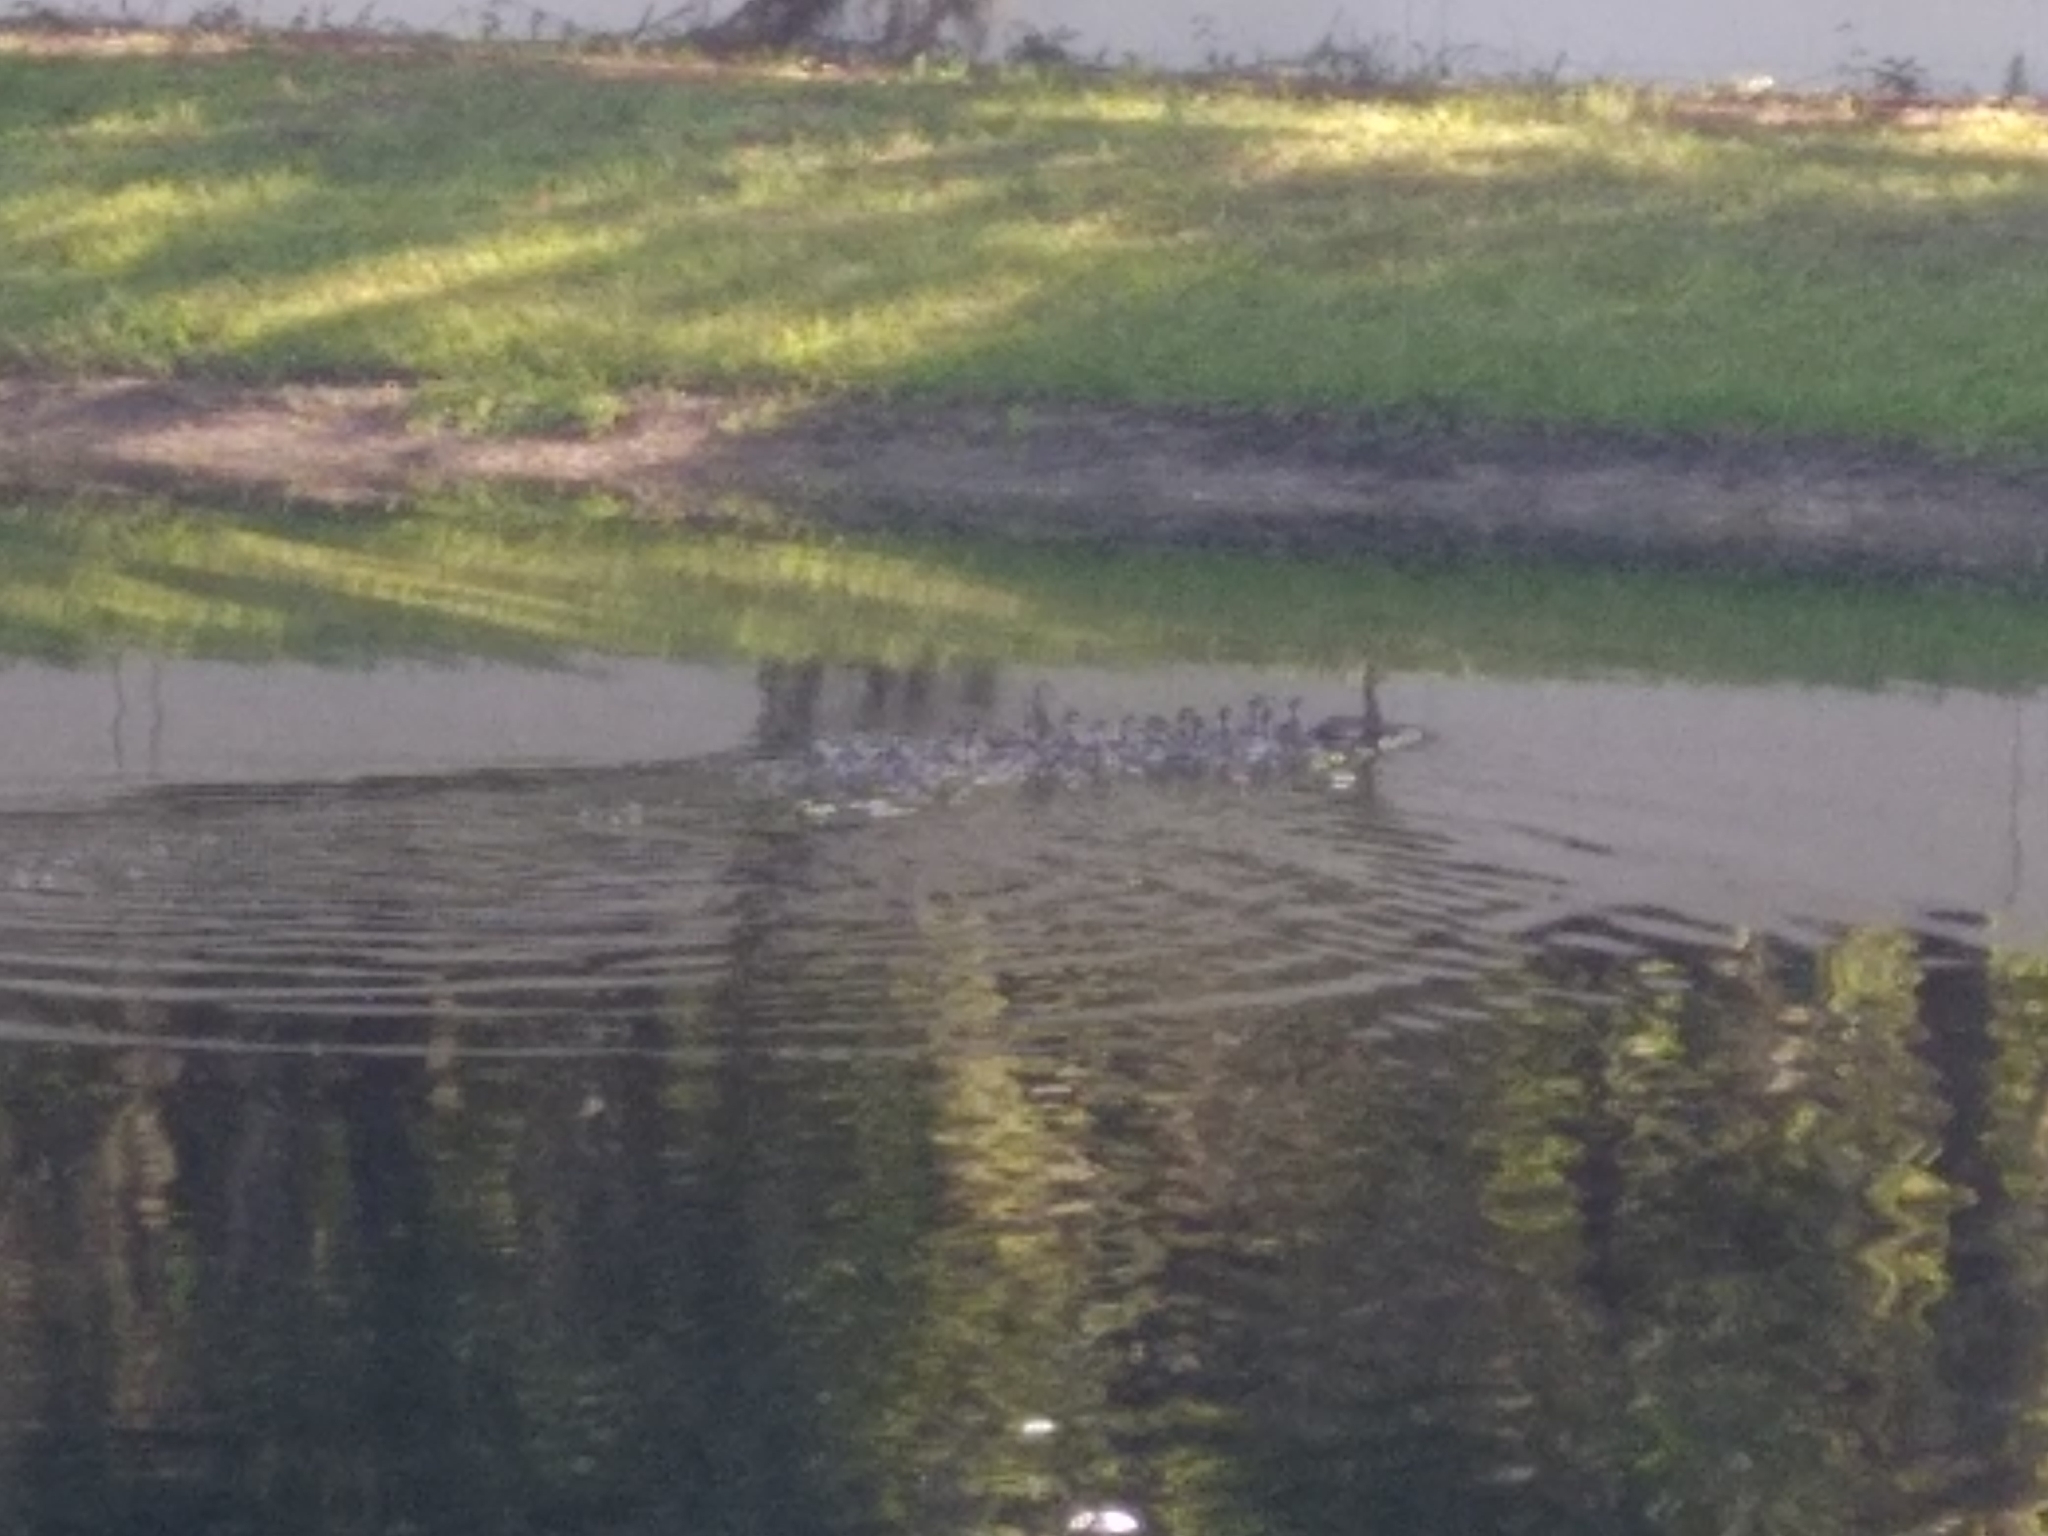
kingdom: Animalia
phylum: Chordata
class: Aves
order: Anseriformes
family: Anatidae
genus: Dendrocygna
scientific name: Dendrocygna autumnalis
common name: Black-bellied whistling duck
